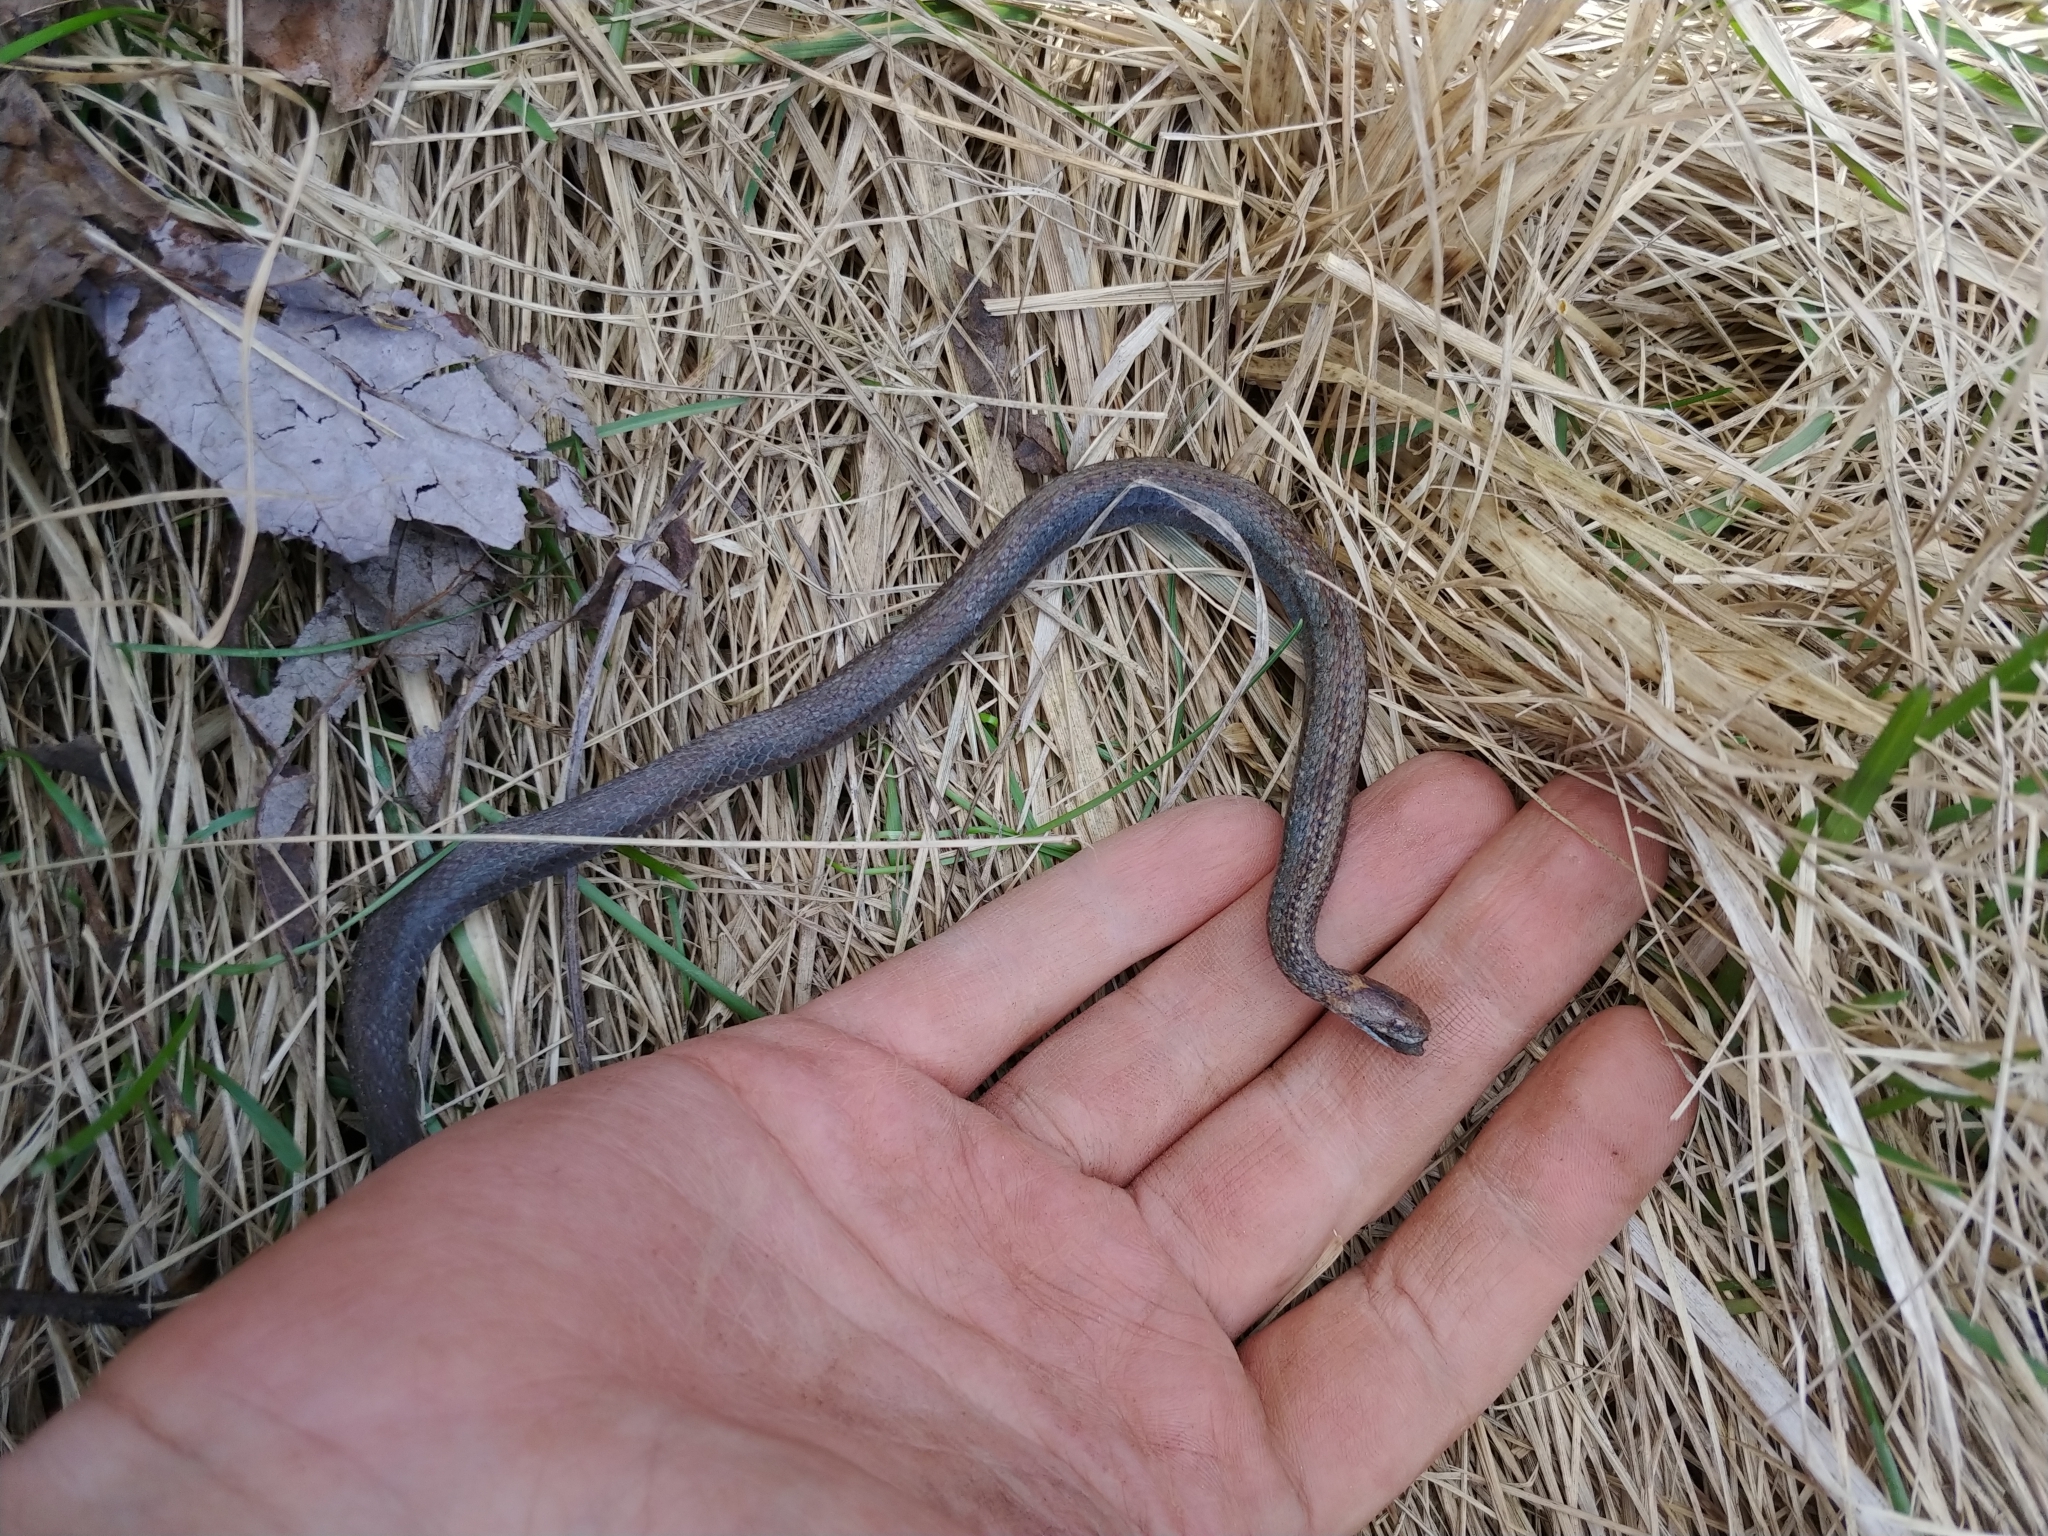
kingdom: Animalia
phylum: Chordata
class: Squamata
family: Colubridae
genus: Storeria
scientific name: Storeria occipitomaculata
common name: Redbelly snake
